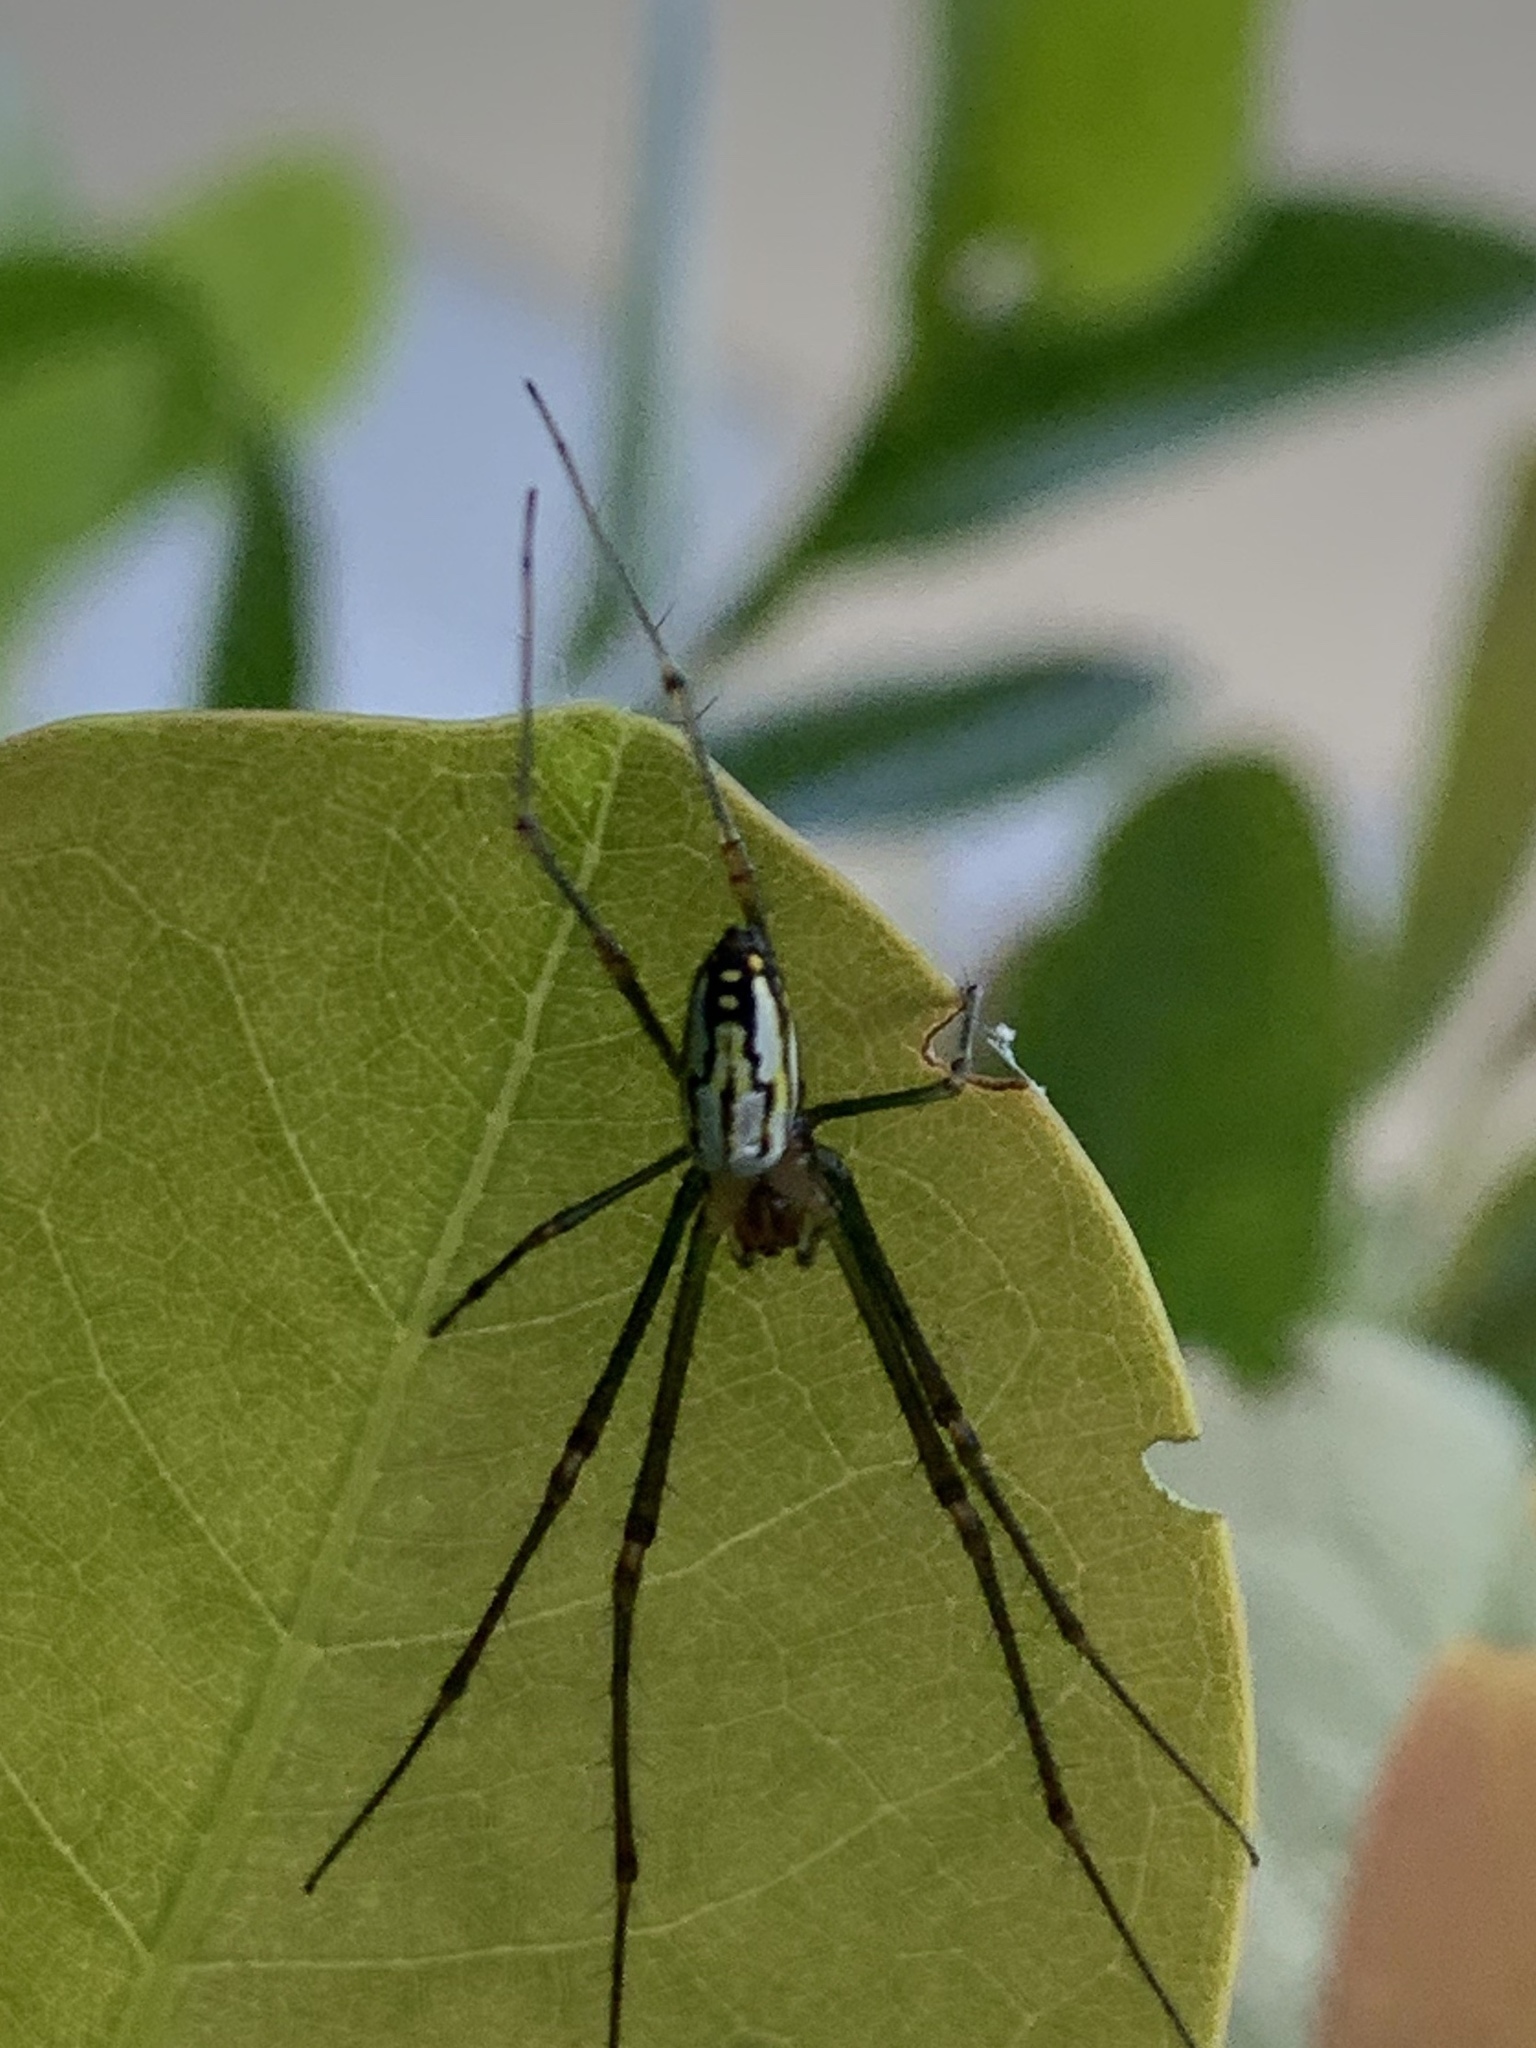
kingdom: Animalia
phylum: Arthropoda
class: Arachnida
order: Araneae
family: Tetragnathidae
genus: Leucauge
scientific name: Leucauge argyra
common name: Longjawed orb weavers
